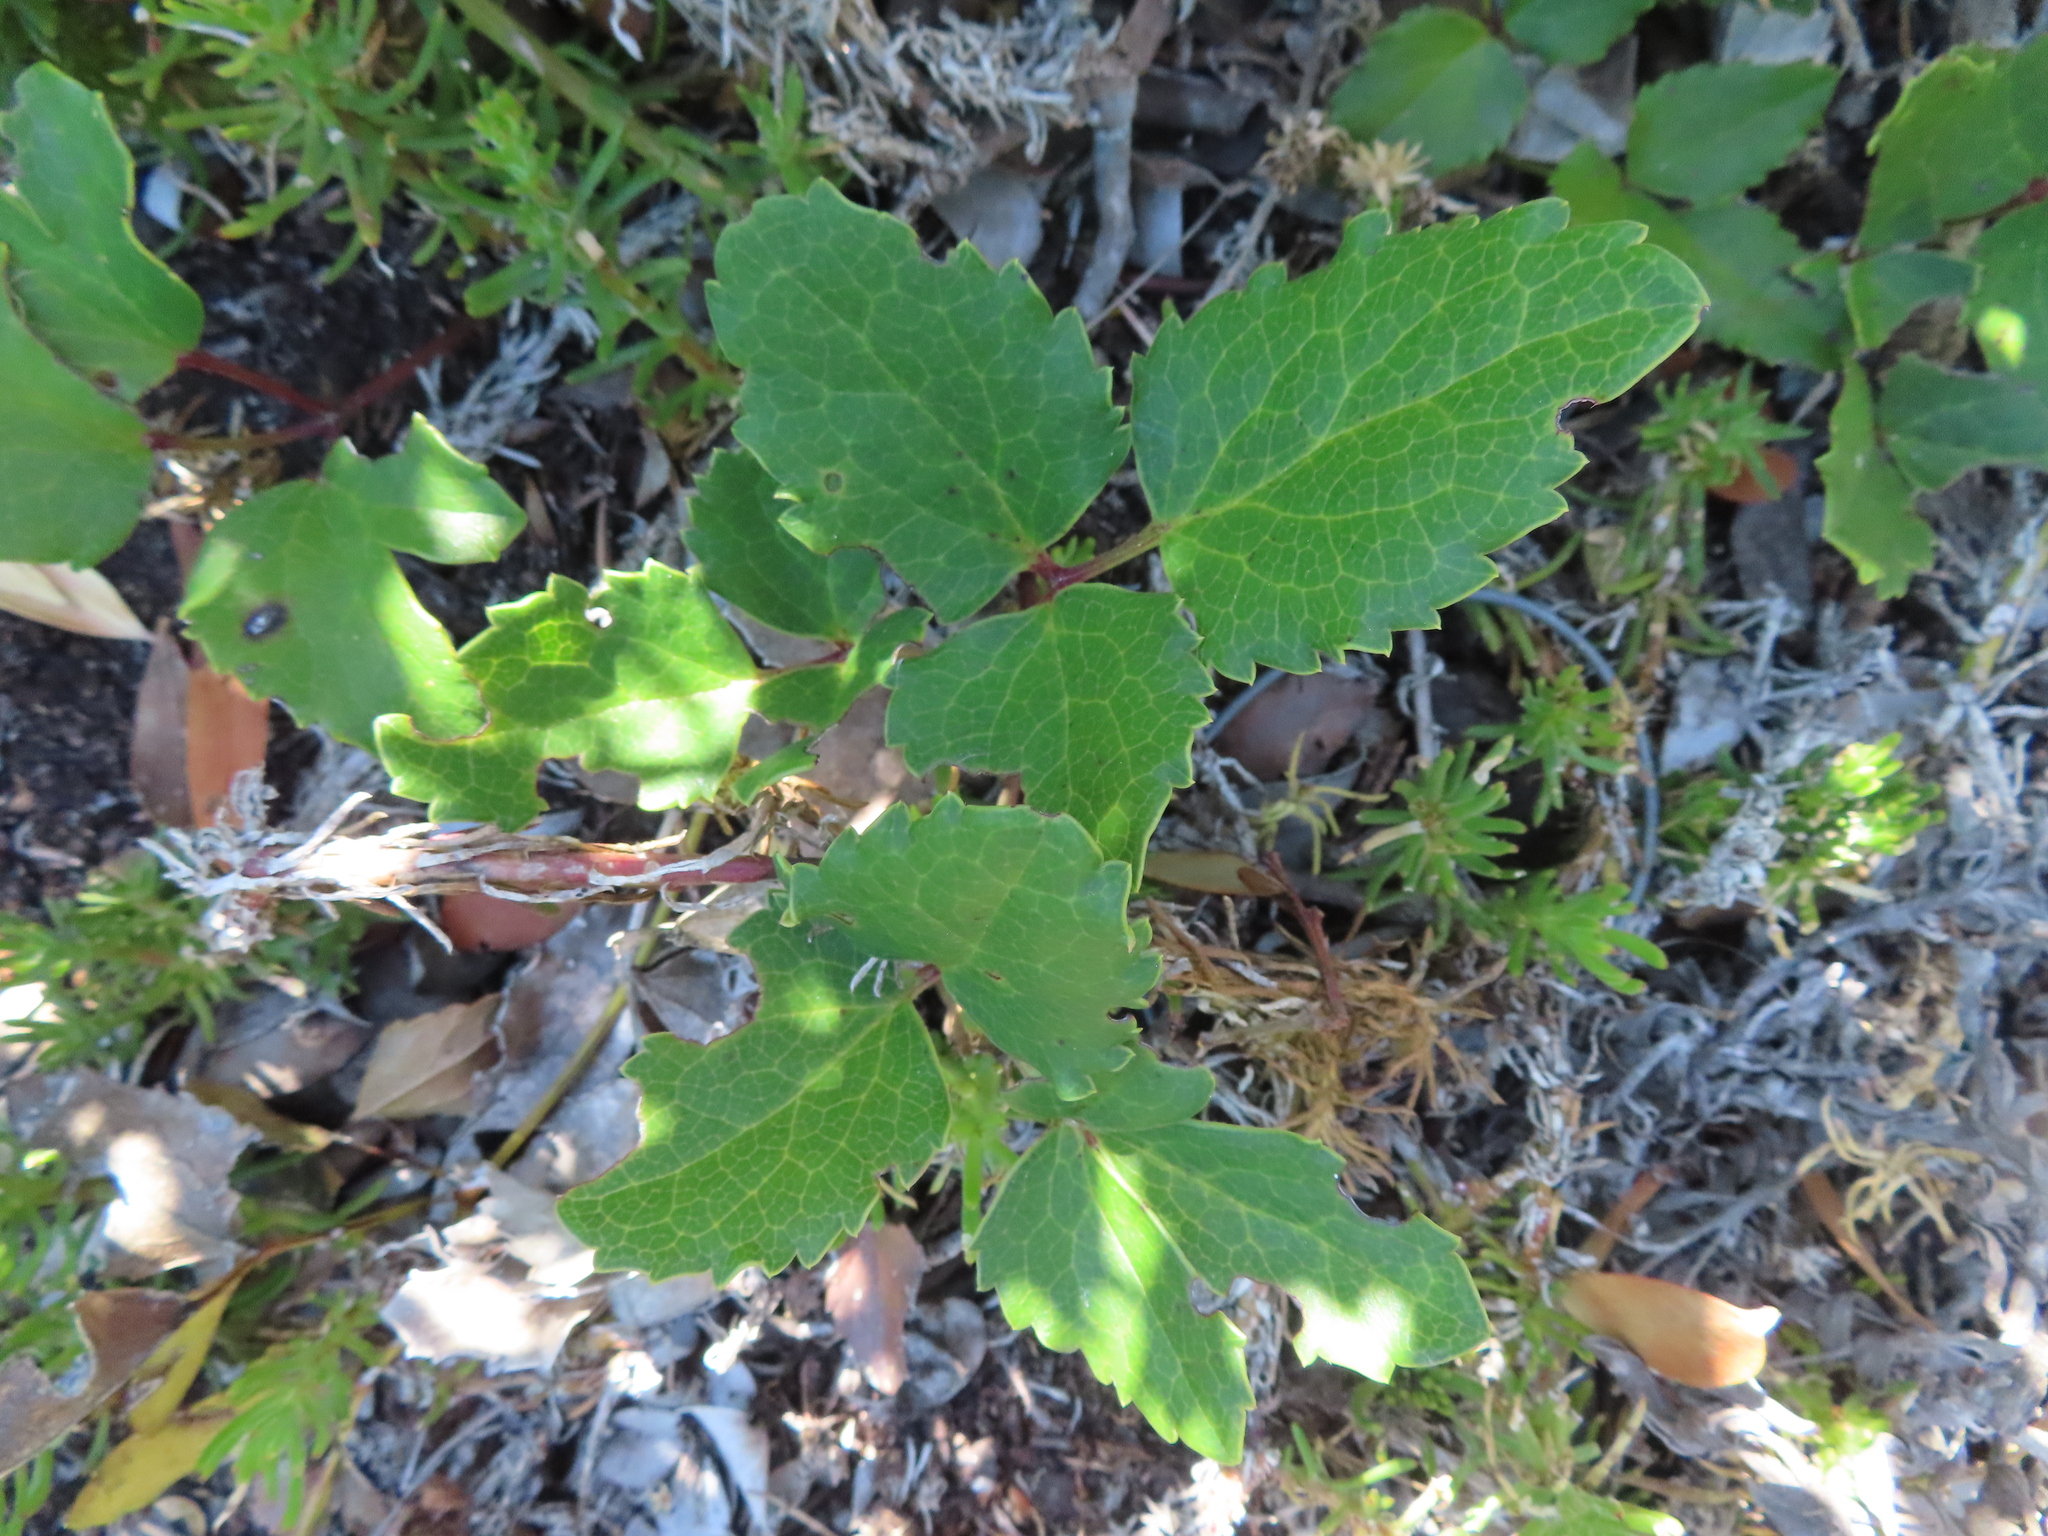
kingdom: Plantae
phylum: Tracheophyta
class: Magnoliopsida
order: Ranunculales
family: Ranunculaceae
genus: Knowltonia
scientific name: Knowltonia vesicatoria
